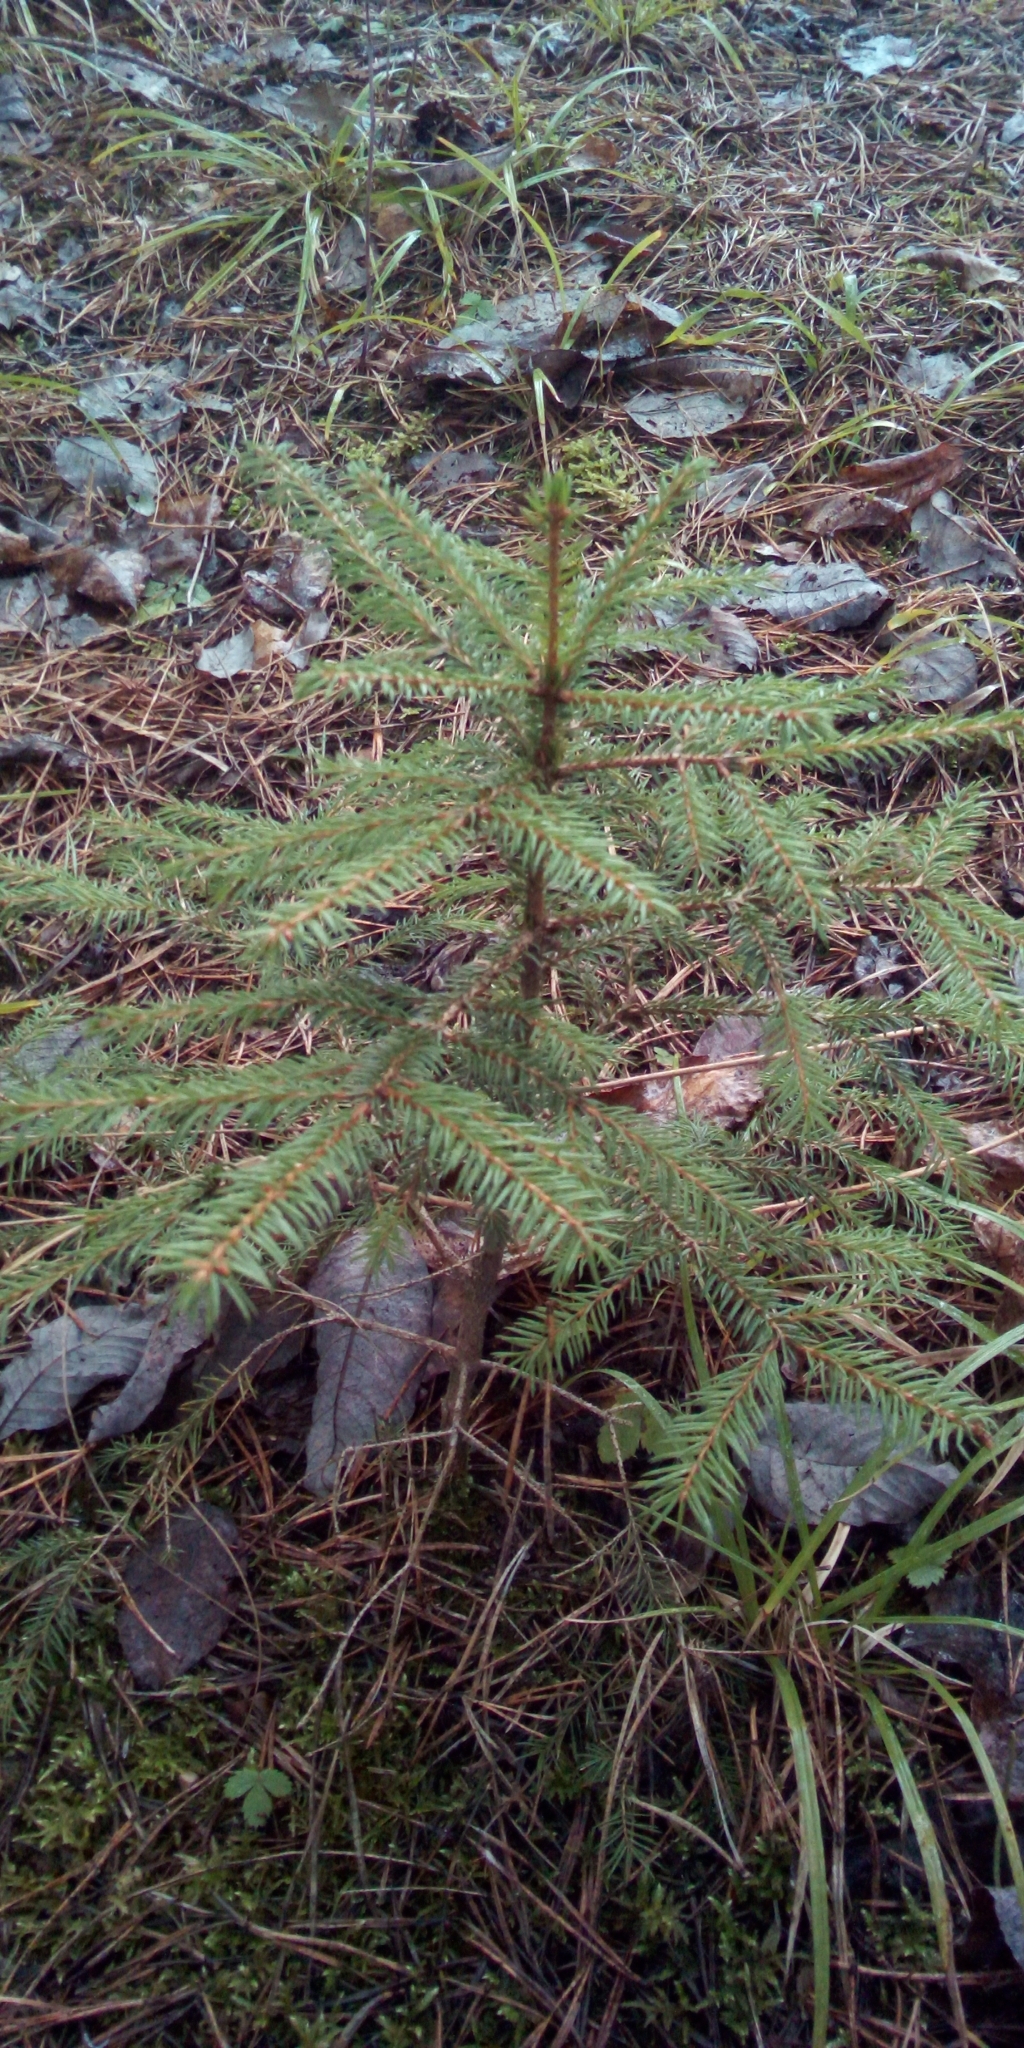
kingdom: Plantae
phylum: Tracheophyta
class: Pinopsida
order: Pinales
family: Pinaceae
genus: Picea
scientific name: Picea abies
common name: Norway spruce
